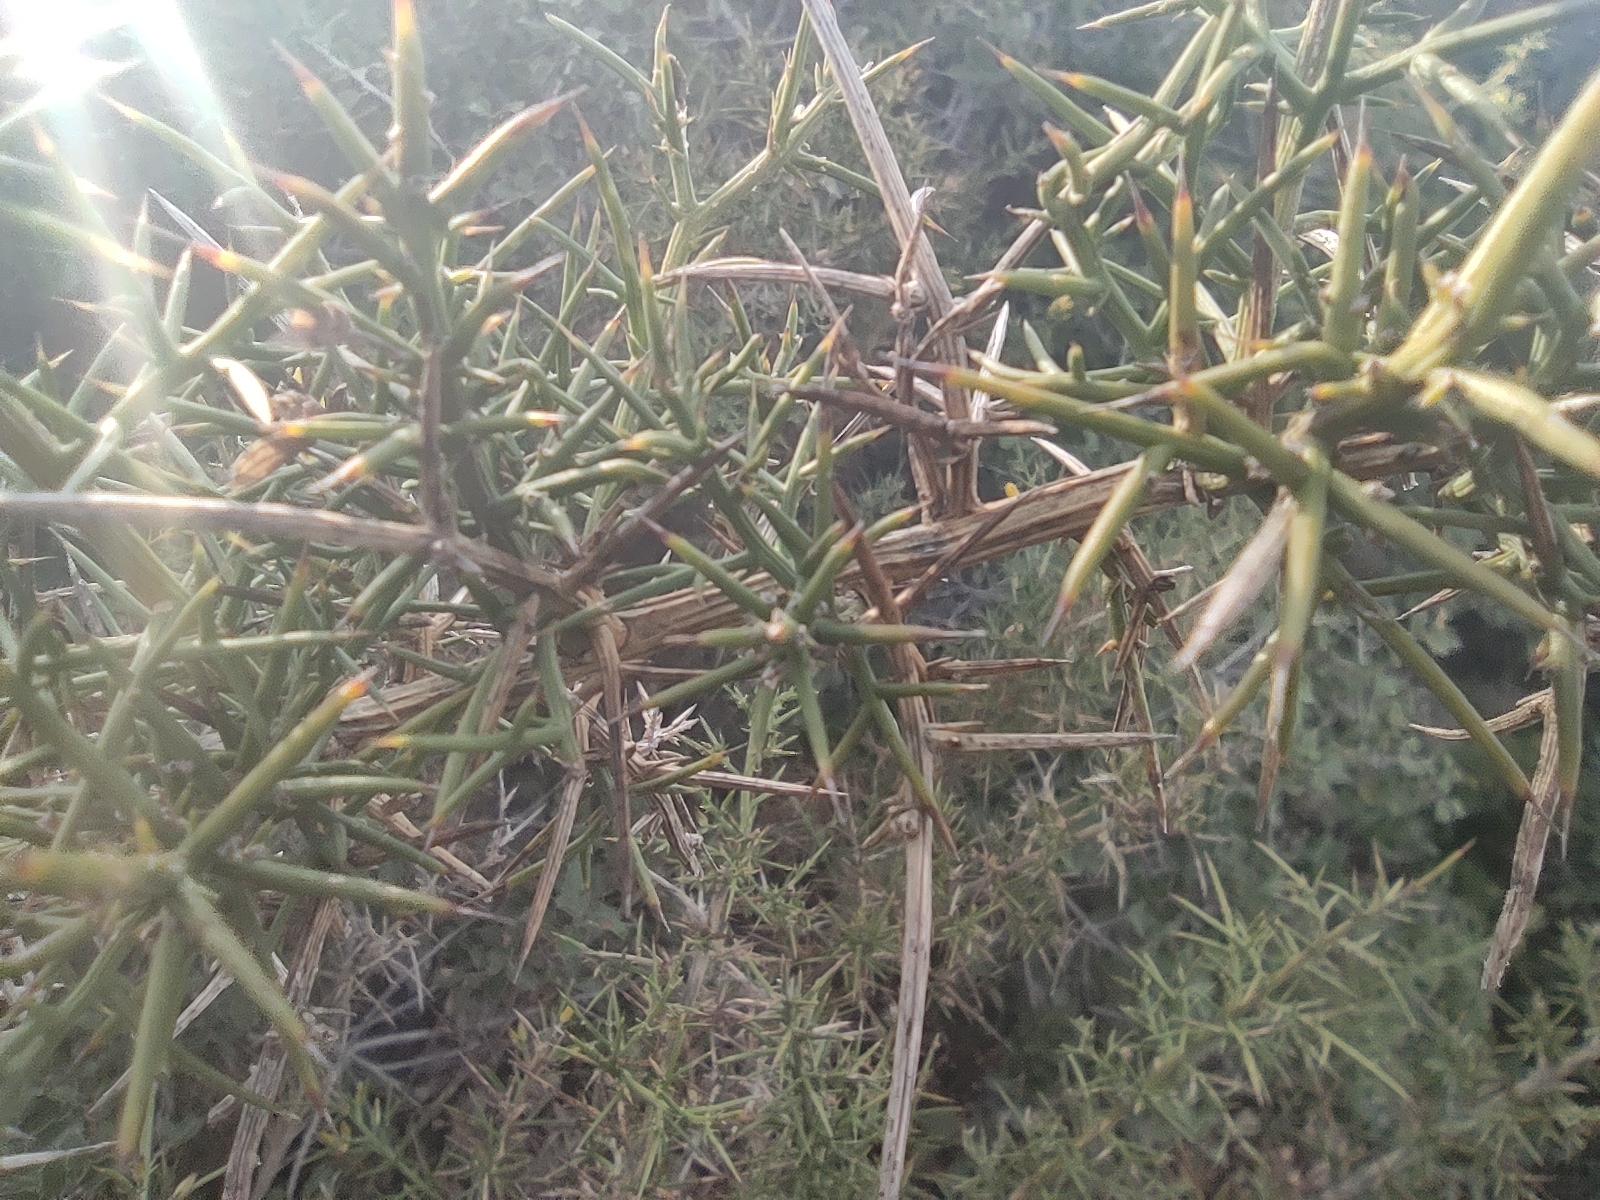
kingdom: Plantae
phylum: Tracheophyta
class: Magnoliopsida
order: Fabales
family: Fabaceae
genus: Ulex
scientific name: Ulex parviflorus
